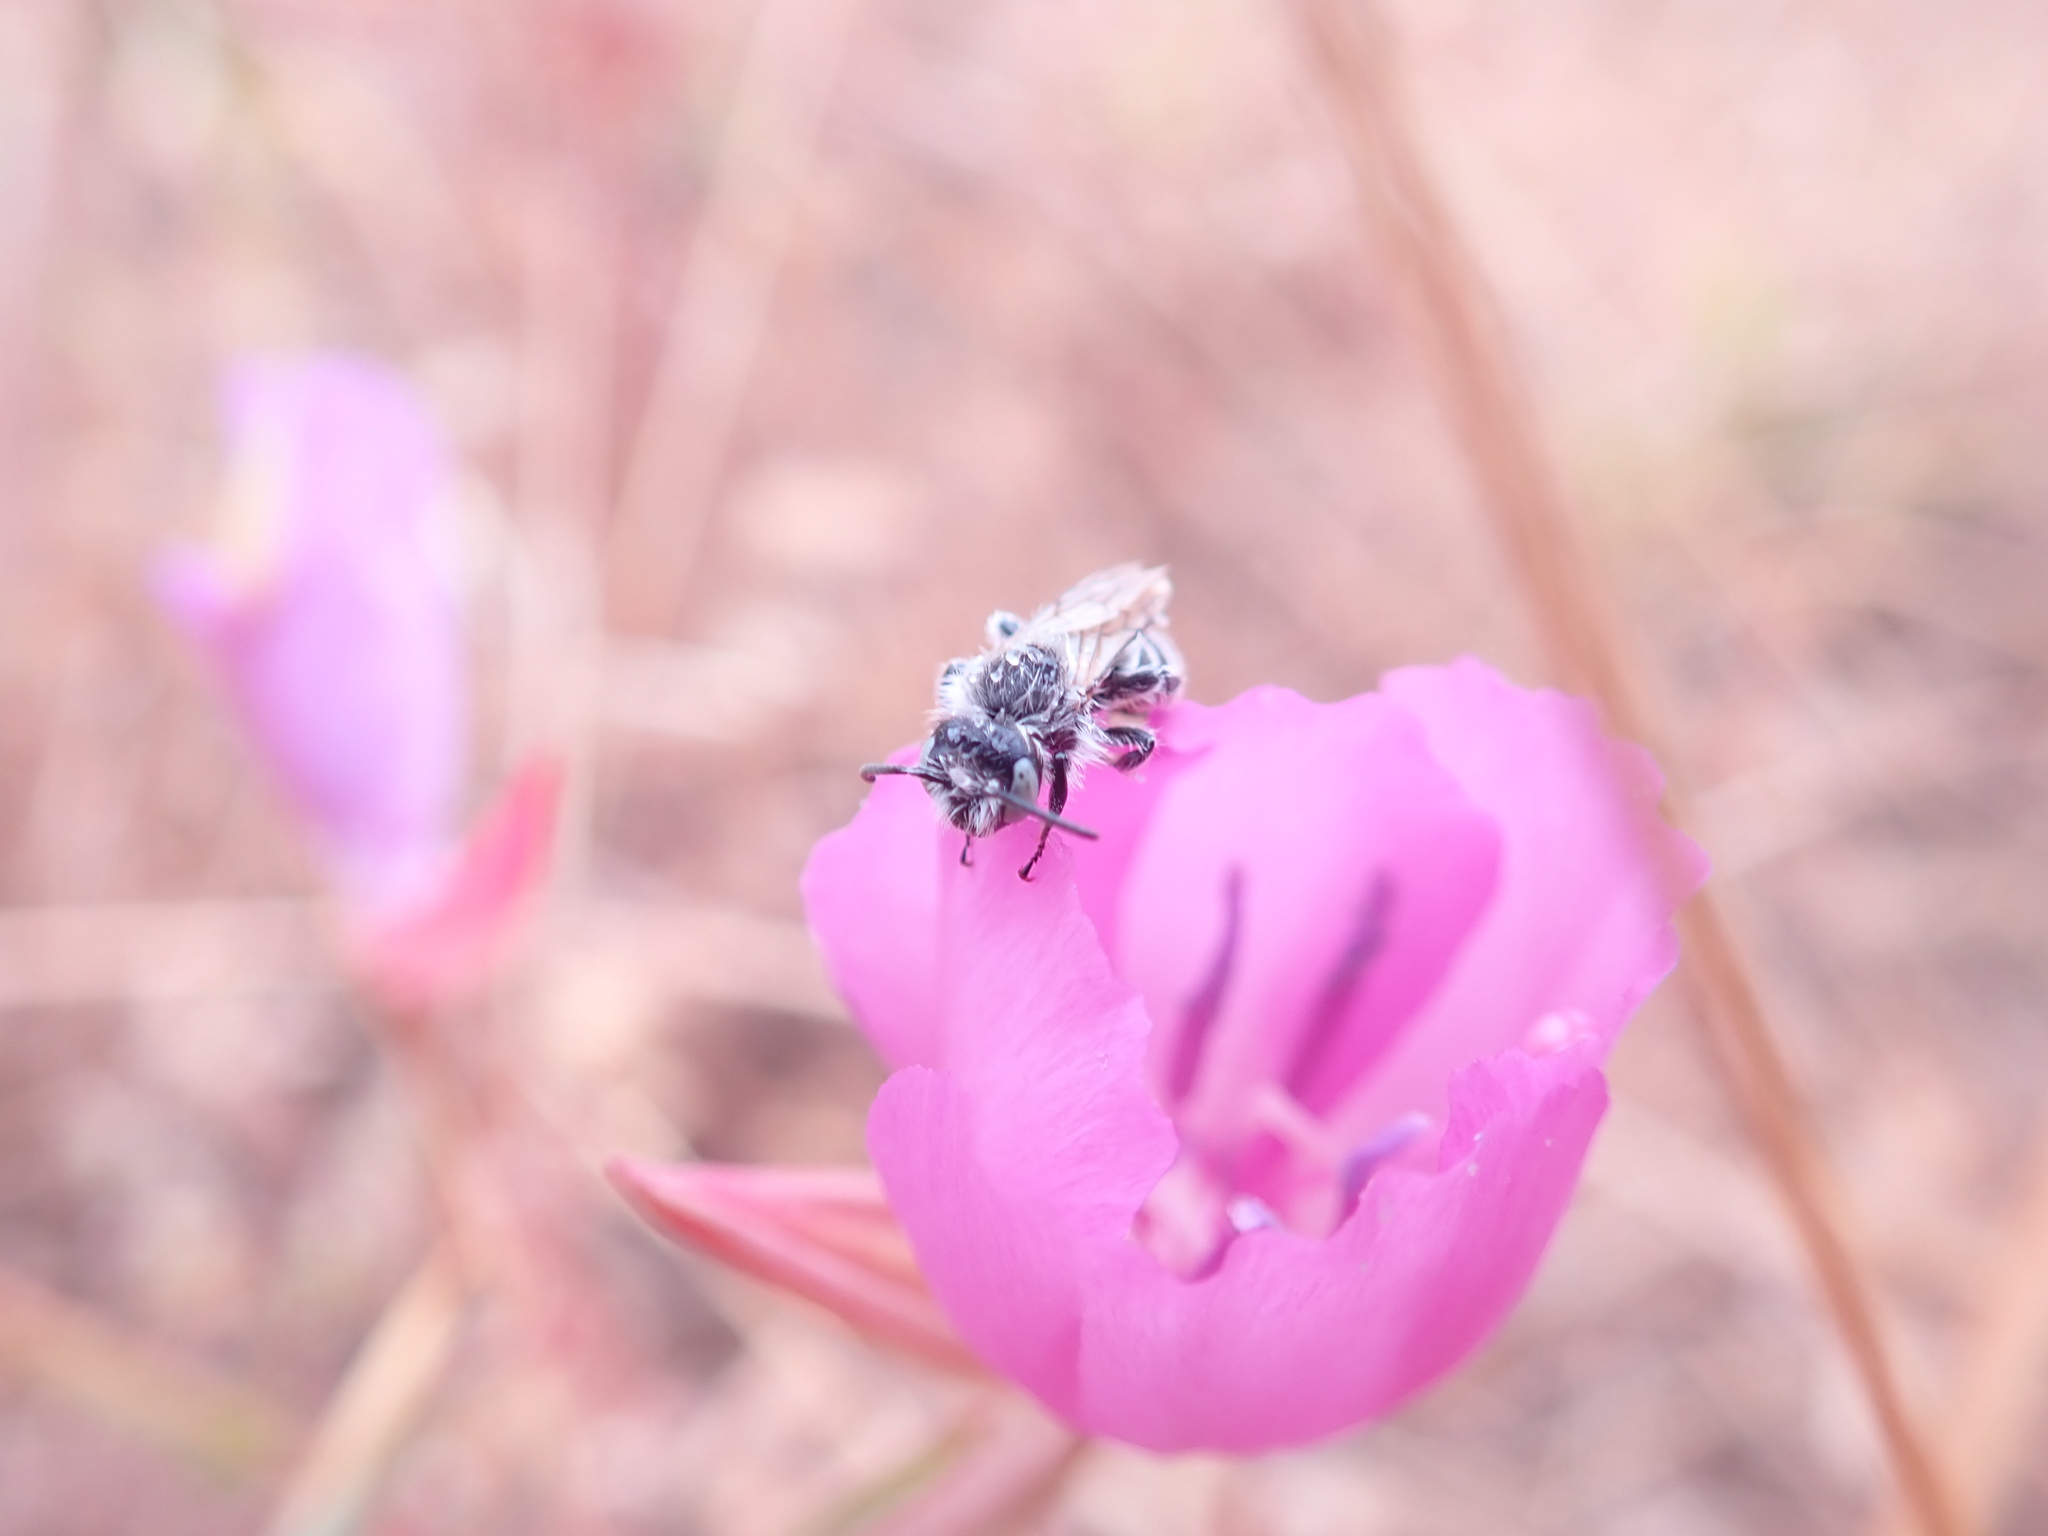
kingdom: Animalia
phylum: Arthropoda
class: Insecta
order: Hymenoptera
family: Melittidae
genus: Hesperapis
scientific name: Hesperapis regularis
